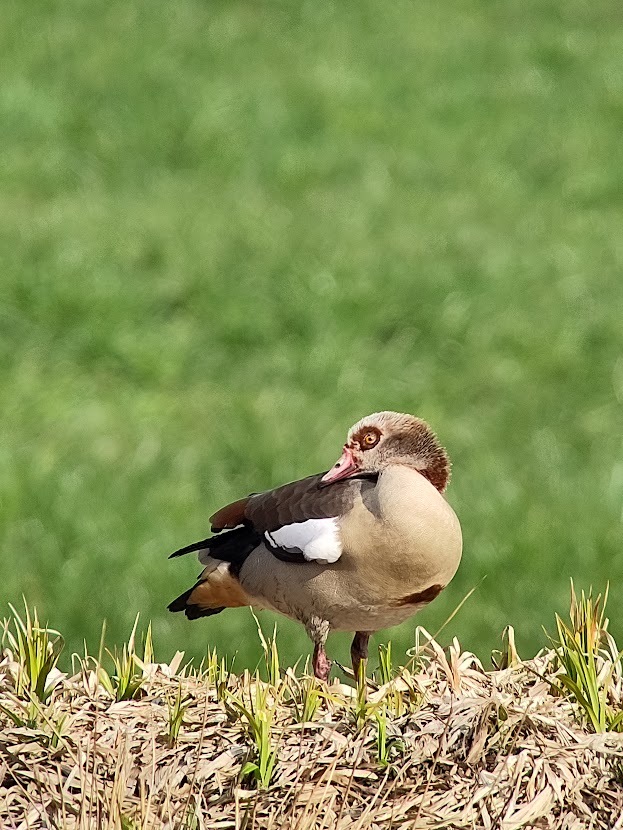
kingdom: Animalia
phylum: Chordata
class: Aves
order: Anseriformes
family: Anatidae
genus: Alopochen
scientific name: Alopochen aegyptiaca
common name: Egyptian goose
